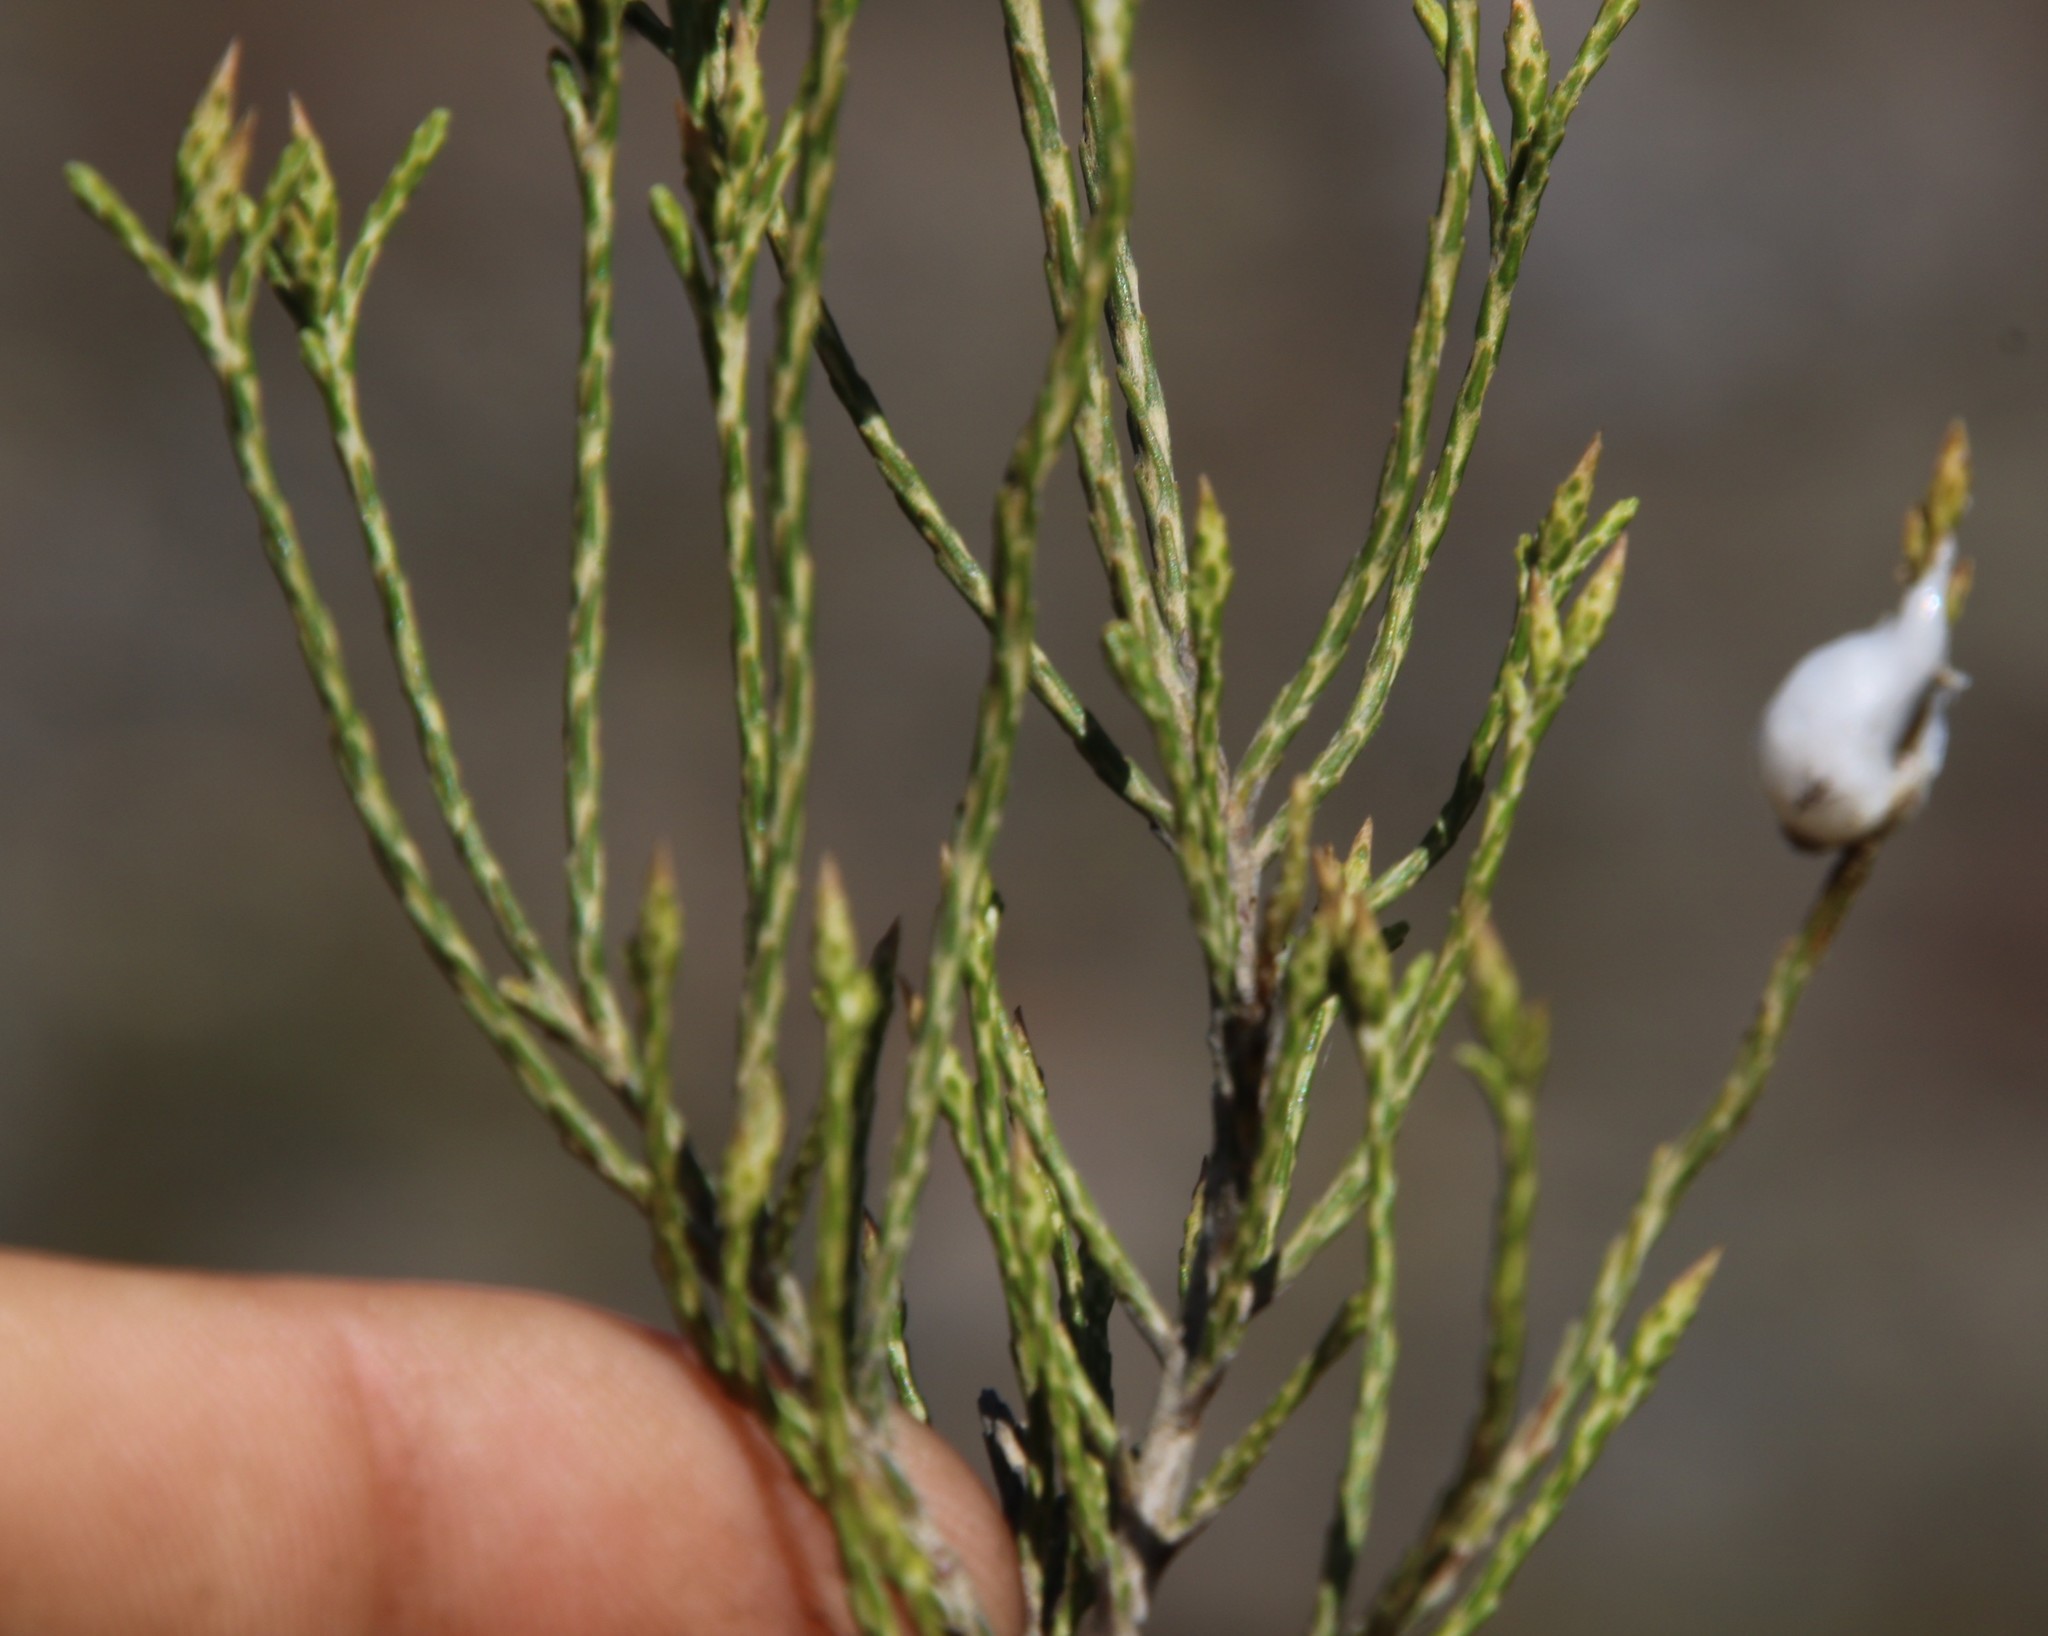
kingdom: Plantae
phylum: Tracheophyta
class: Magnoliopsida
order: Asterales
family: Asteraceae
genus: Dicerothamnus
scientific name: Dicerothamnus adpressus
